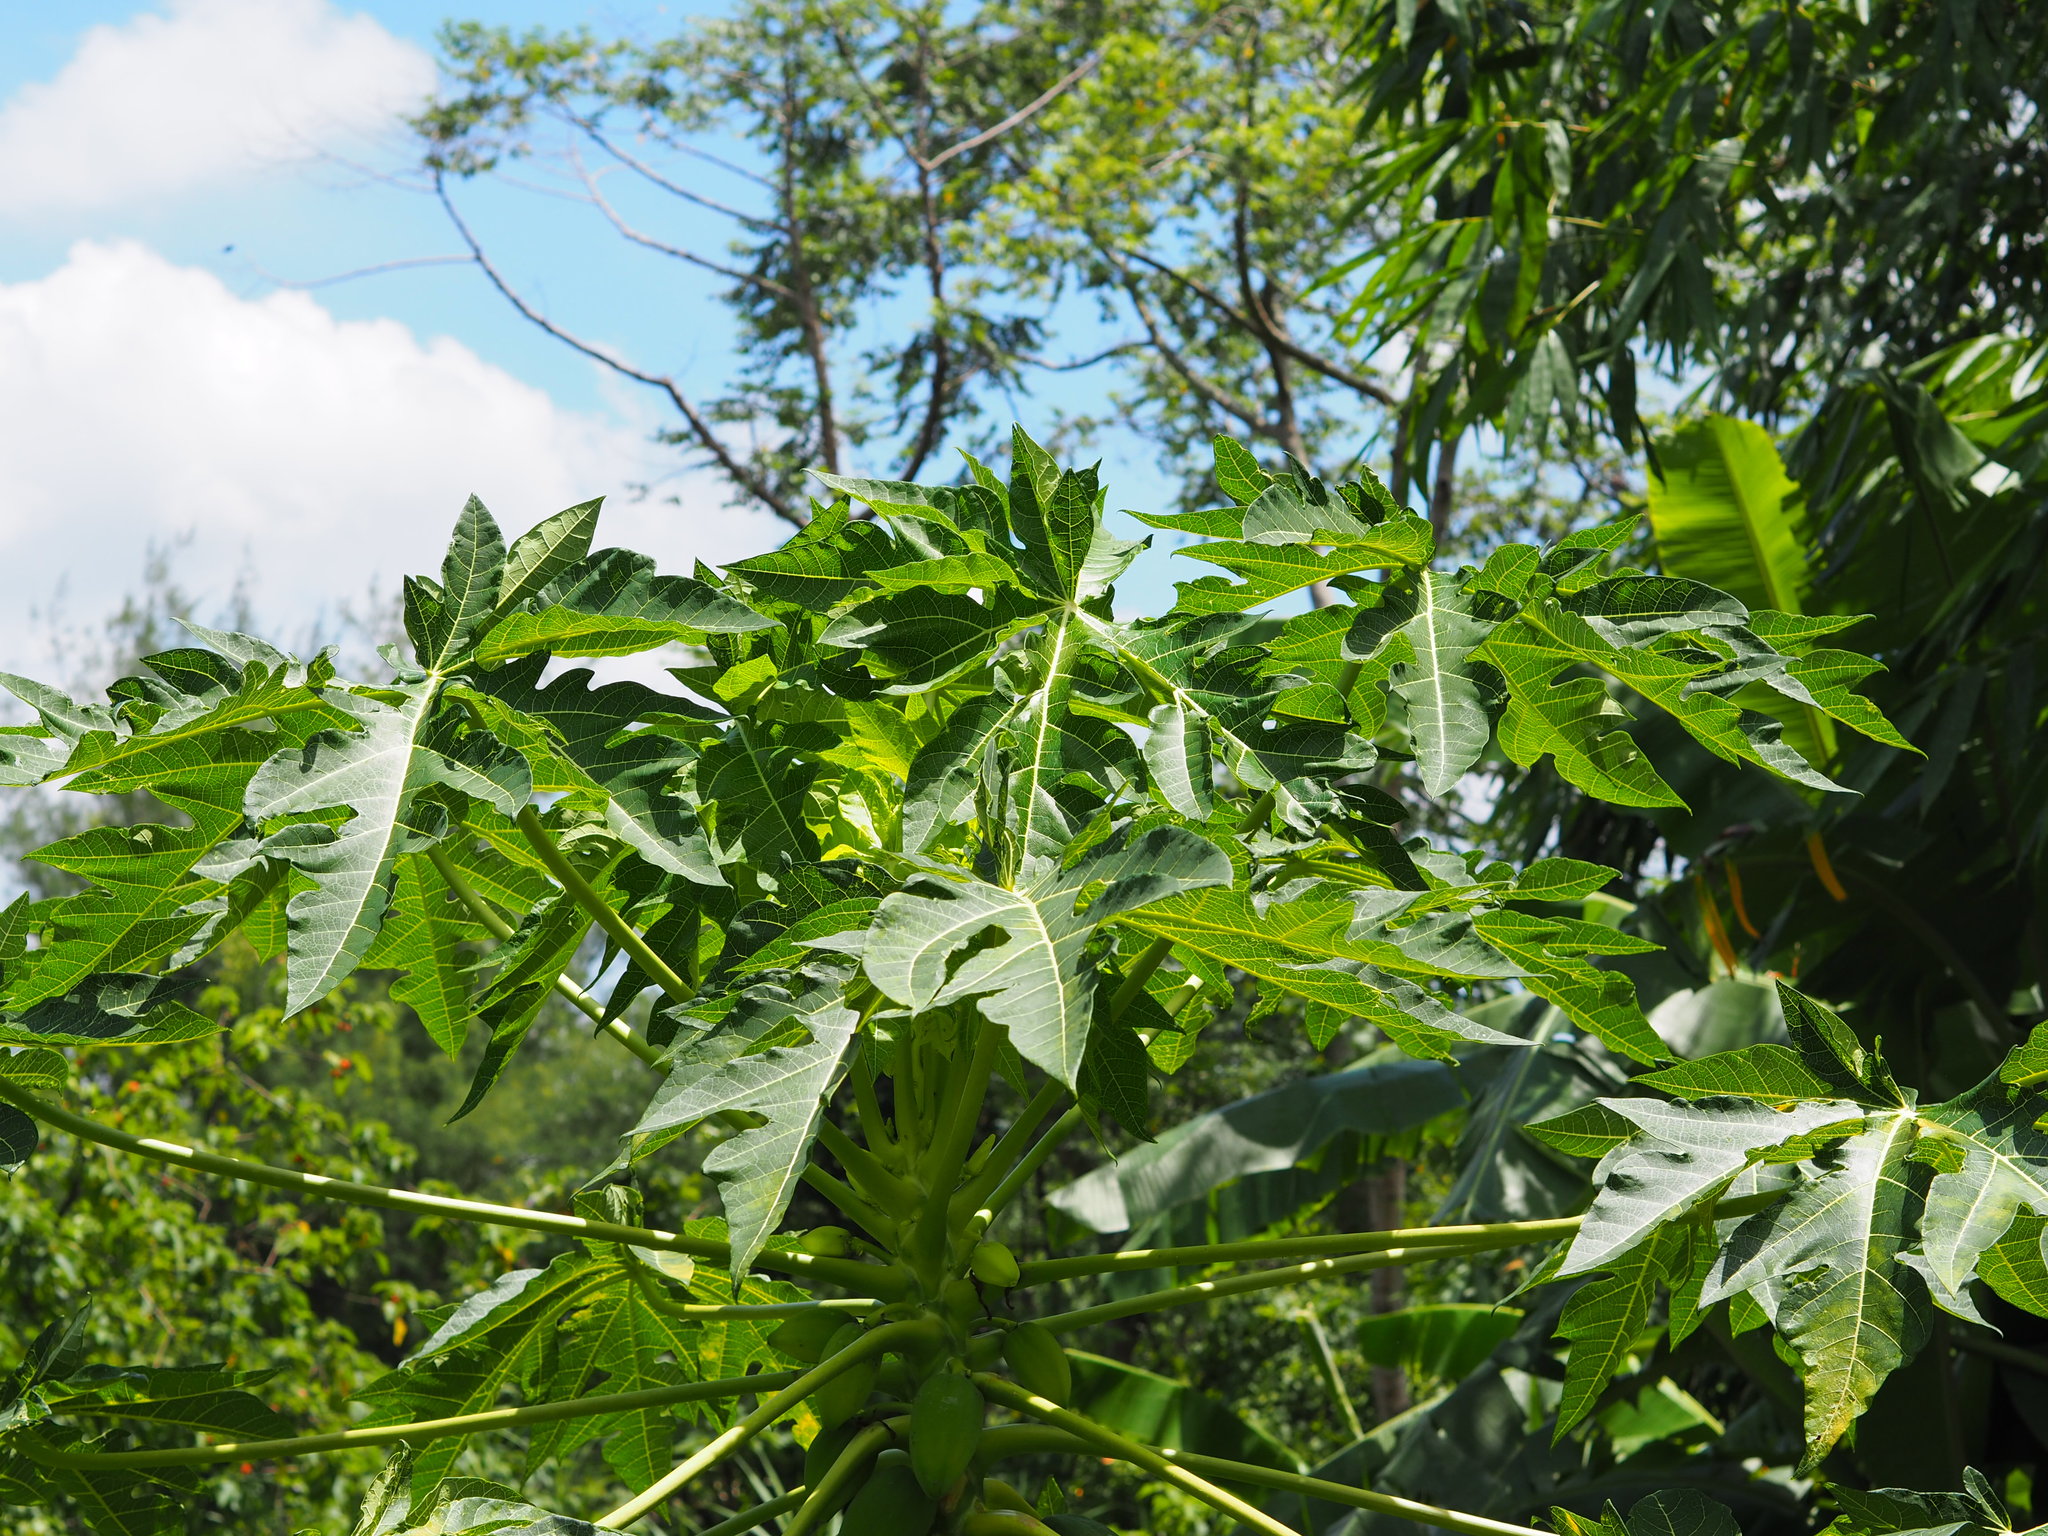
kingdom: Plantae
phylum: Tracheophyta
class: Magnoliopsida
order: Brassicales
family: Caricaceae
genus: Carica
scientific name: Carica papaya
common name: Papaya
